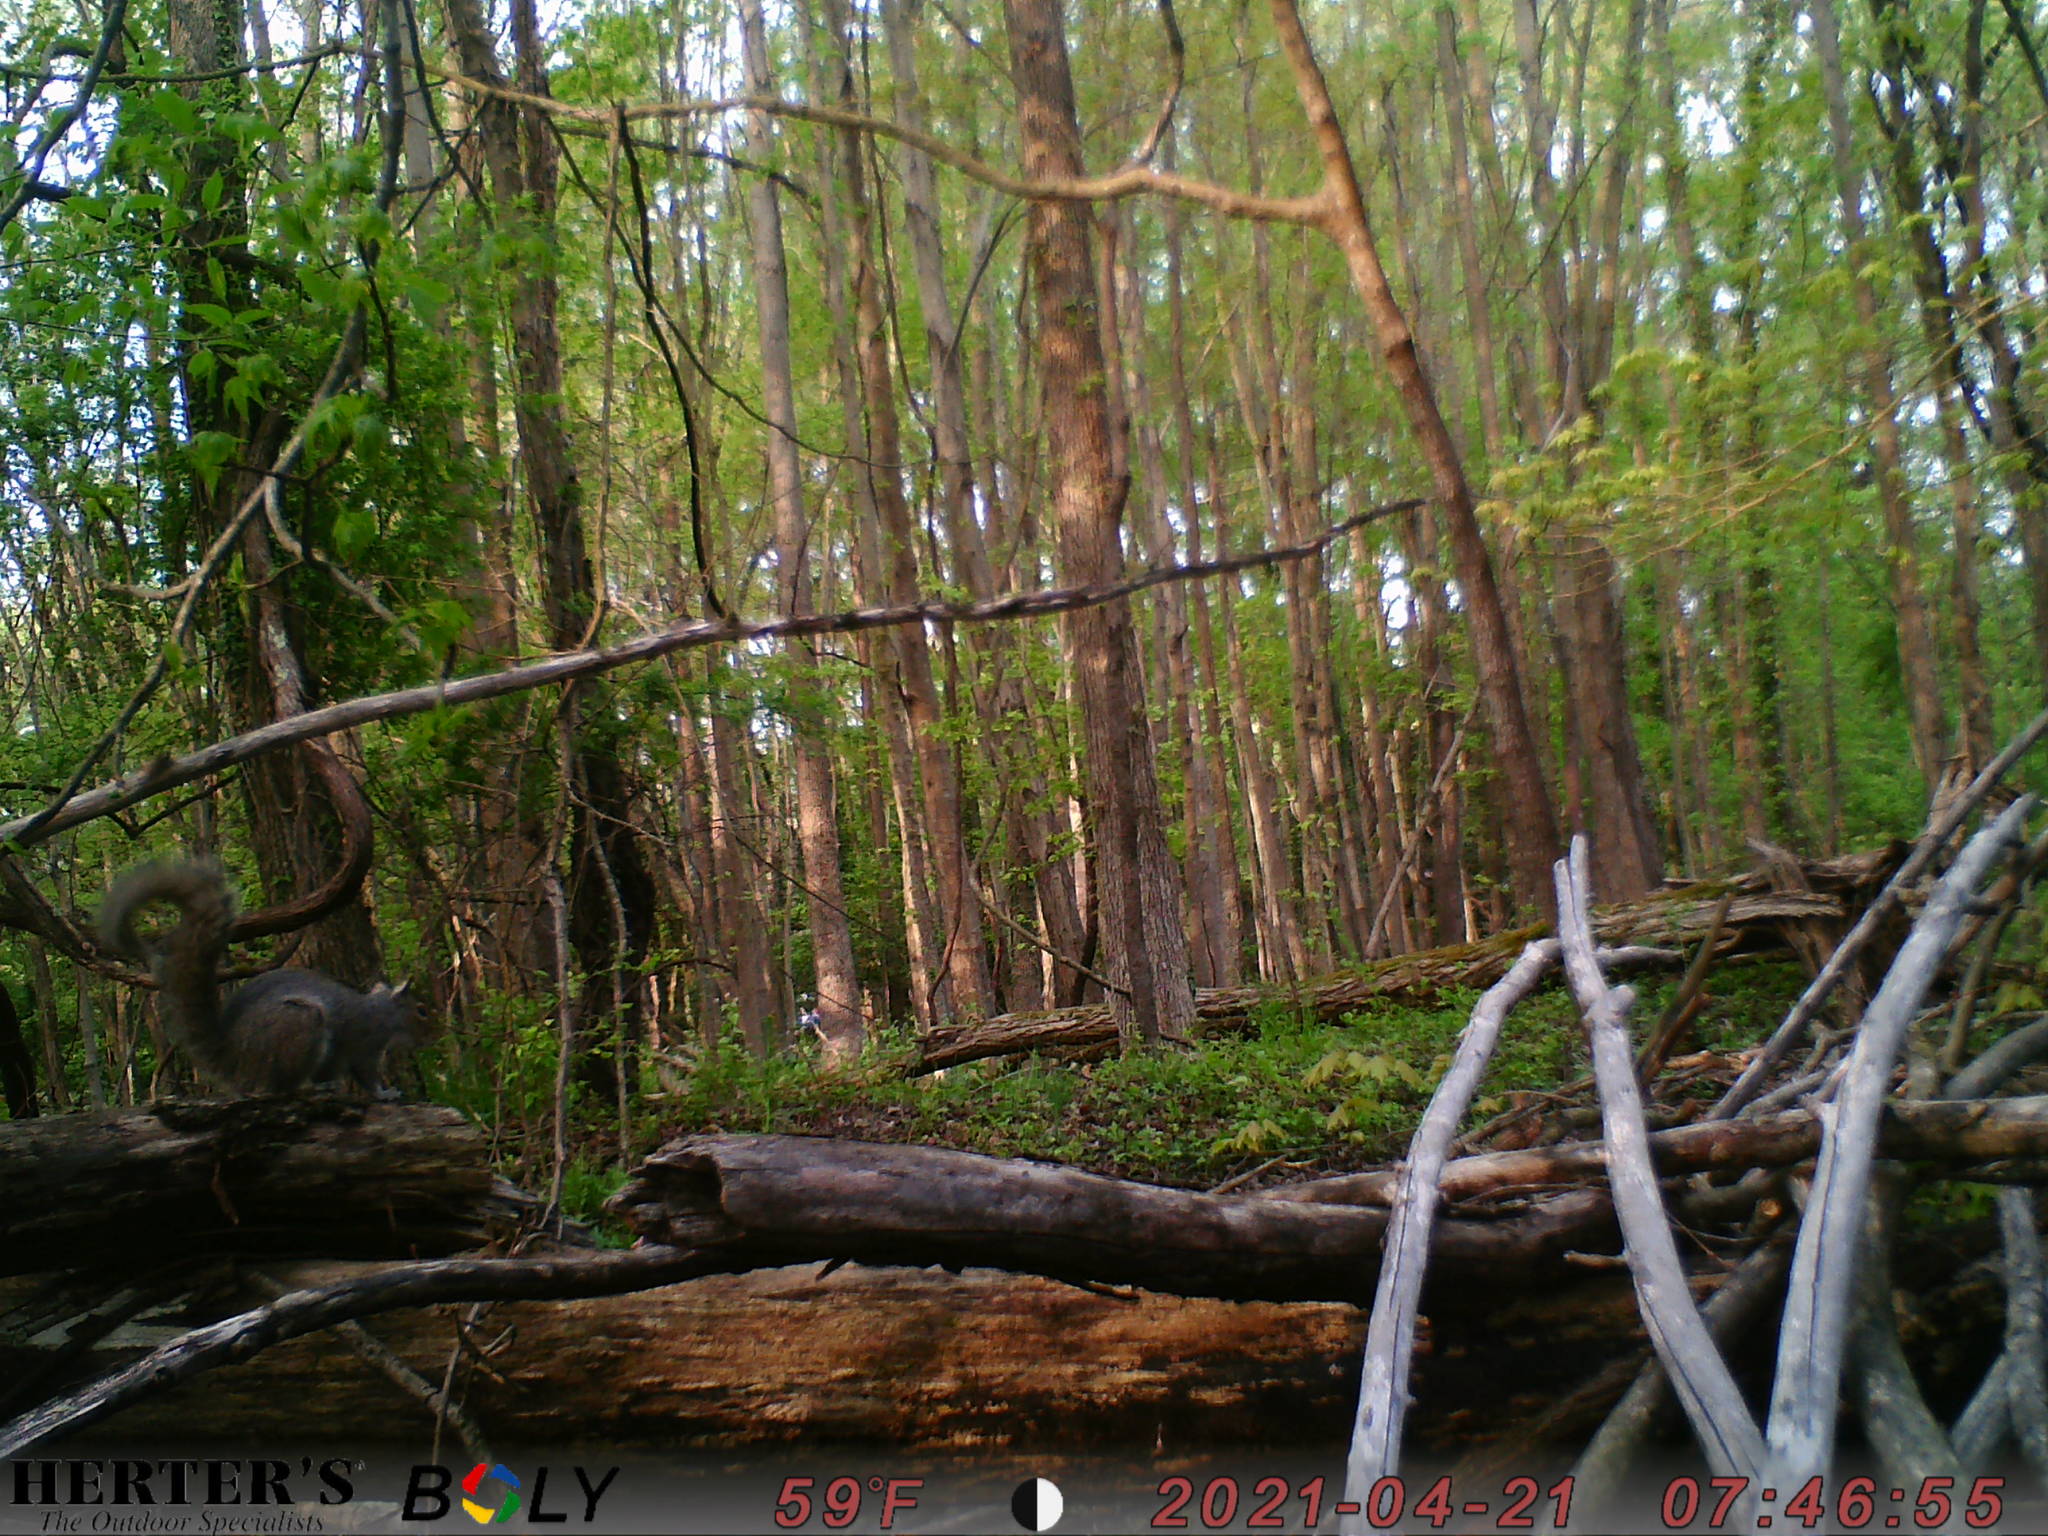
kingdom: Animalia
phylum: Chordata
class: Mammalia
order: Rodentia
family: Sciuridae
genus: Sciurus
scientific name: Sciurus carolinensis
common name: Eastern gray squirrel
